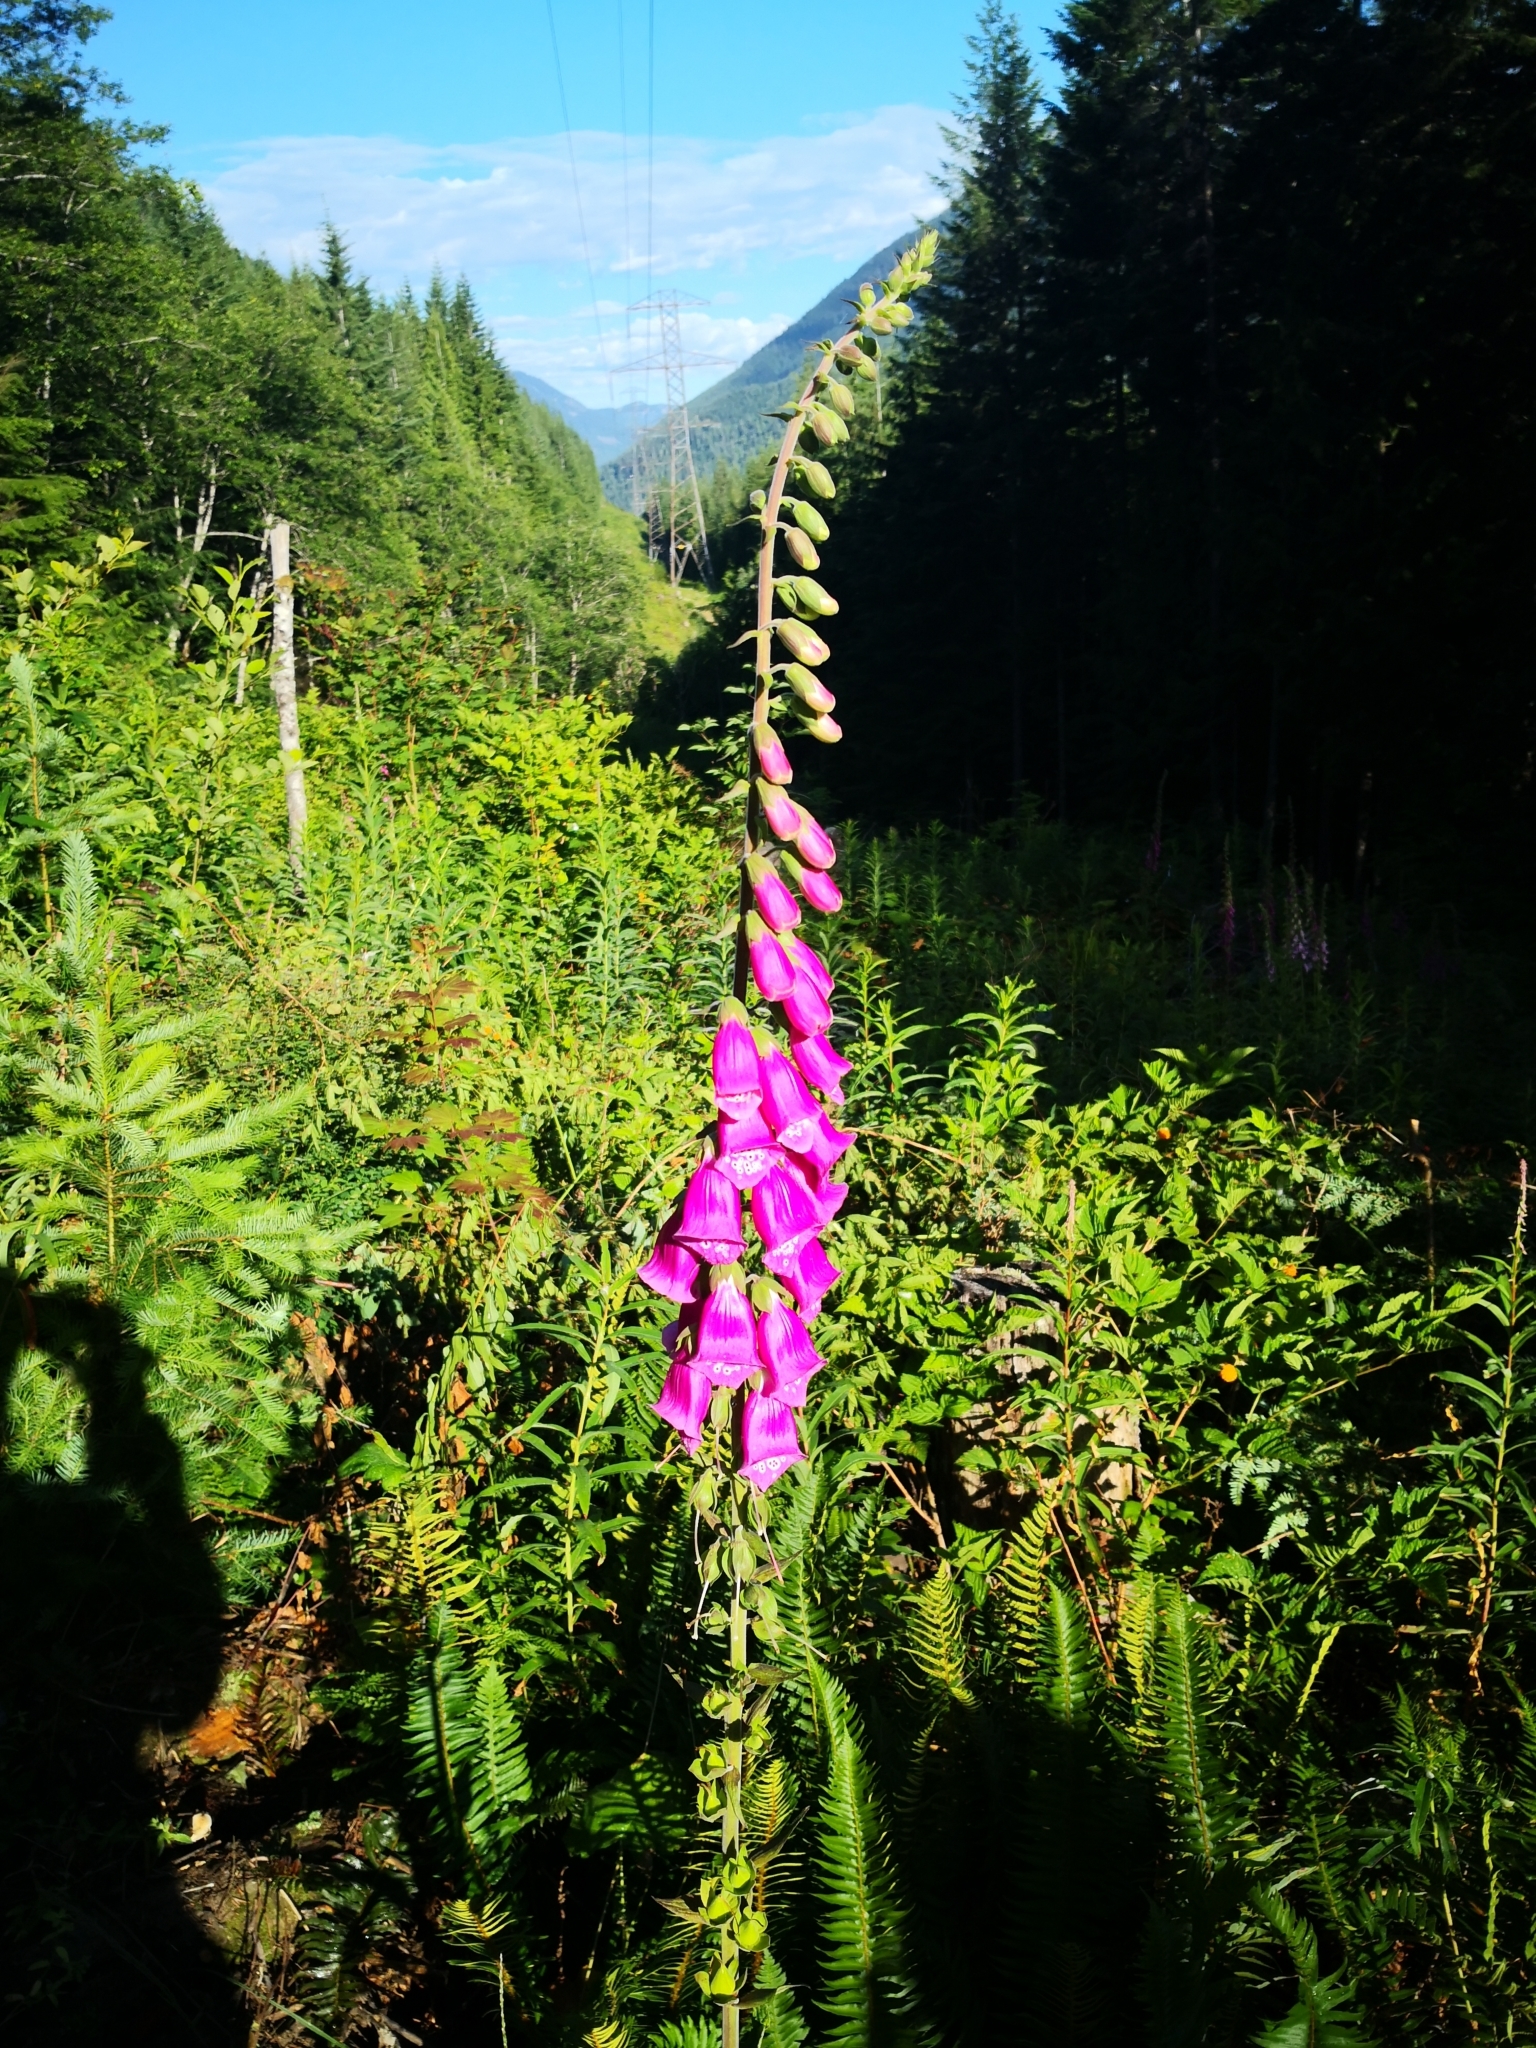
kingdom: Plantae
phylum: Tracheophyta
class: Magnoliopsida
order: Lamiales
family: Plantaginaceae
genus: Digitalis
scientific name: Digitalis purpurea
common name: Foxglove
